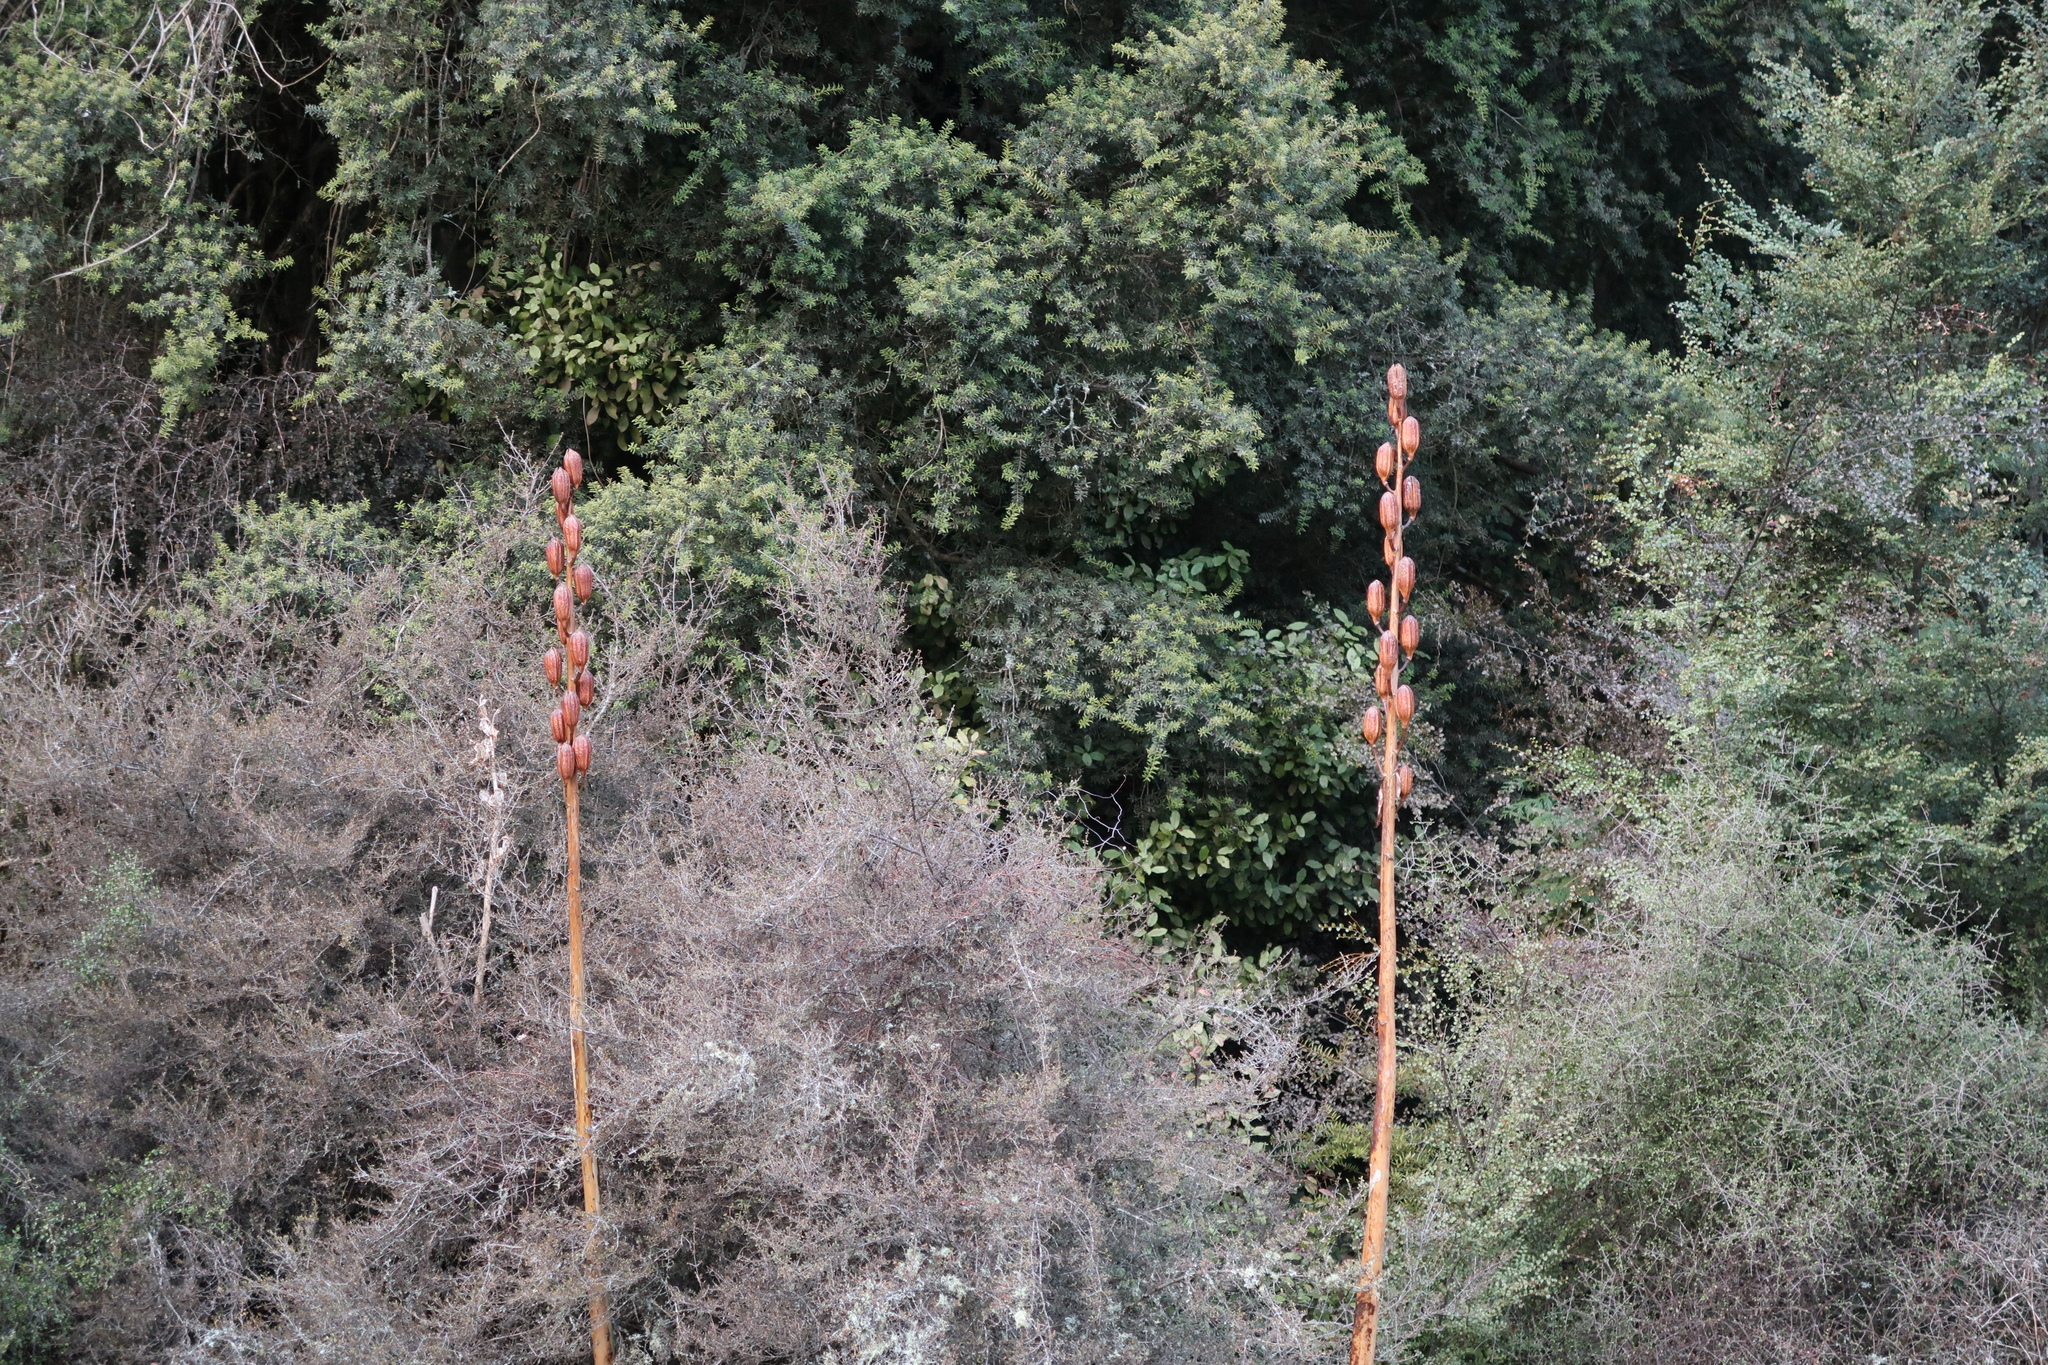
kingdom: Plantae
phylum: Tracheophyta
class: Liliopsida
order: Liliales
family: Liliaceae
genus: Cardiocrinum
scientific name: Cardiocrinum cordatum
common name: Lily
